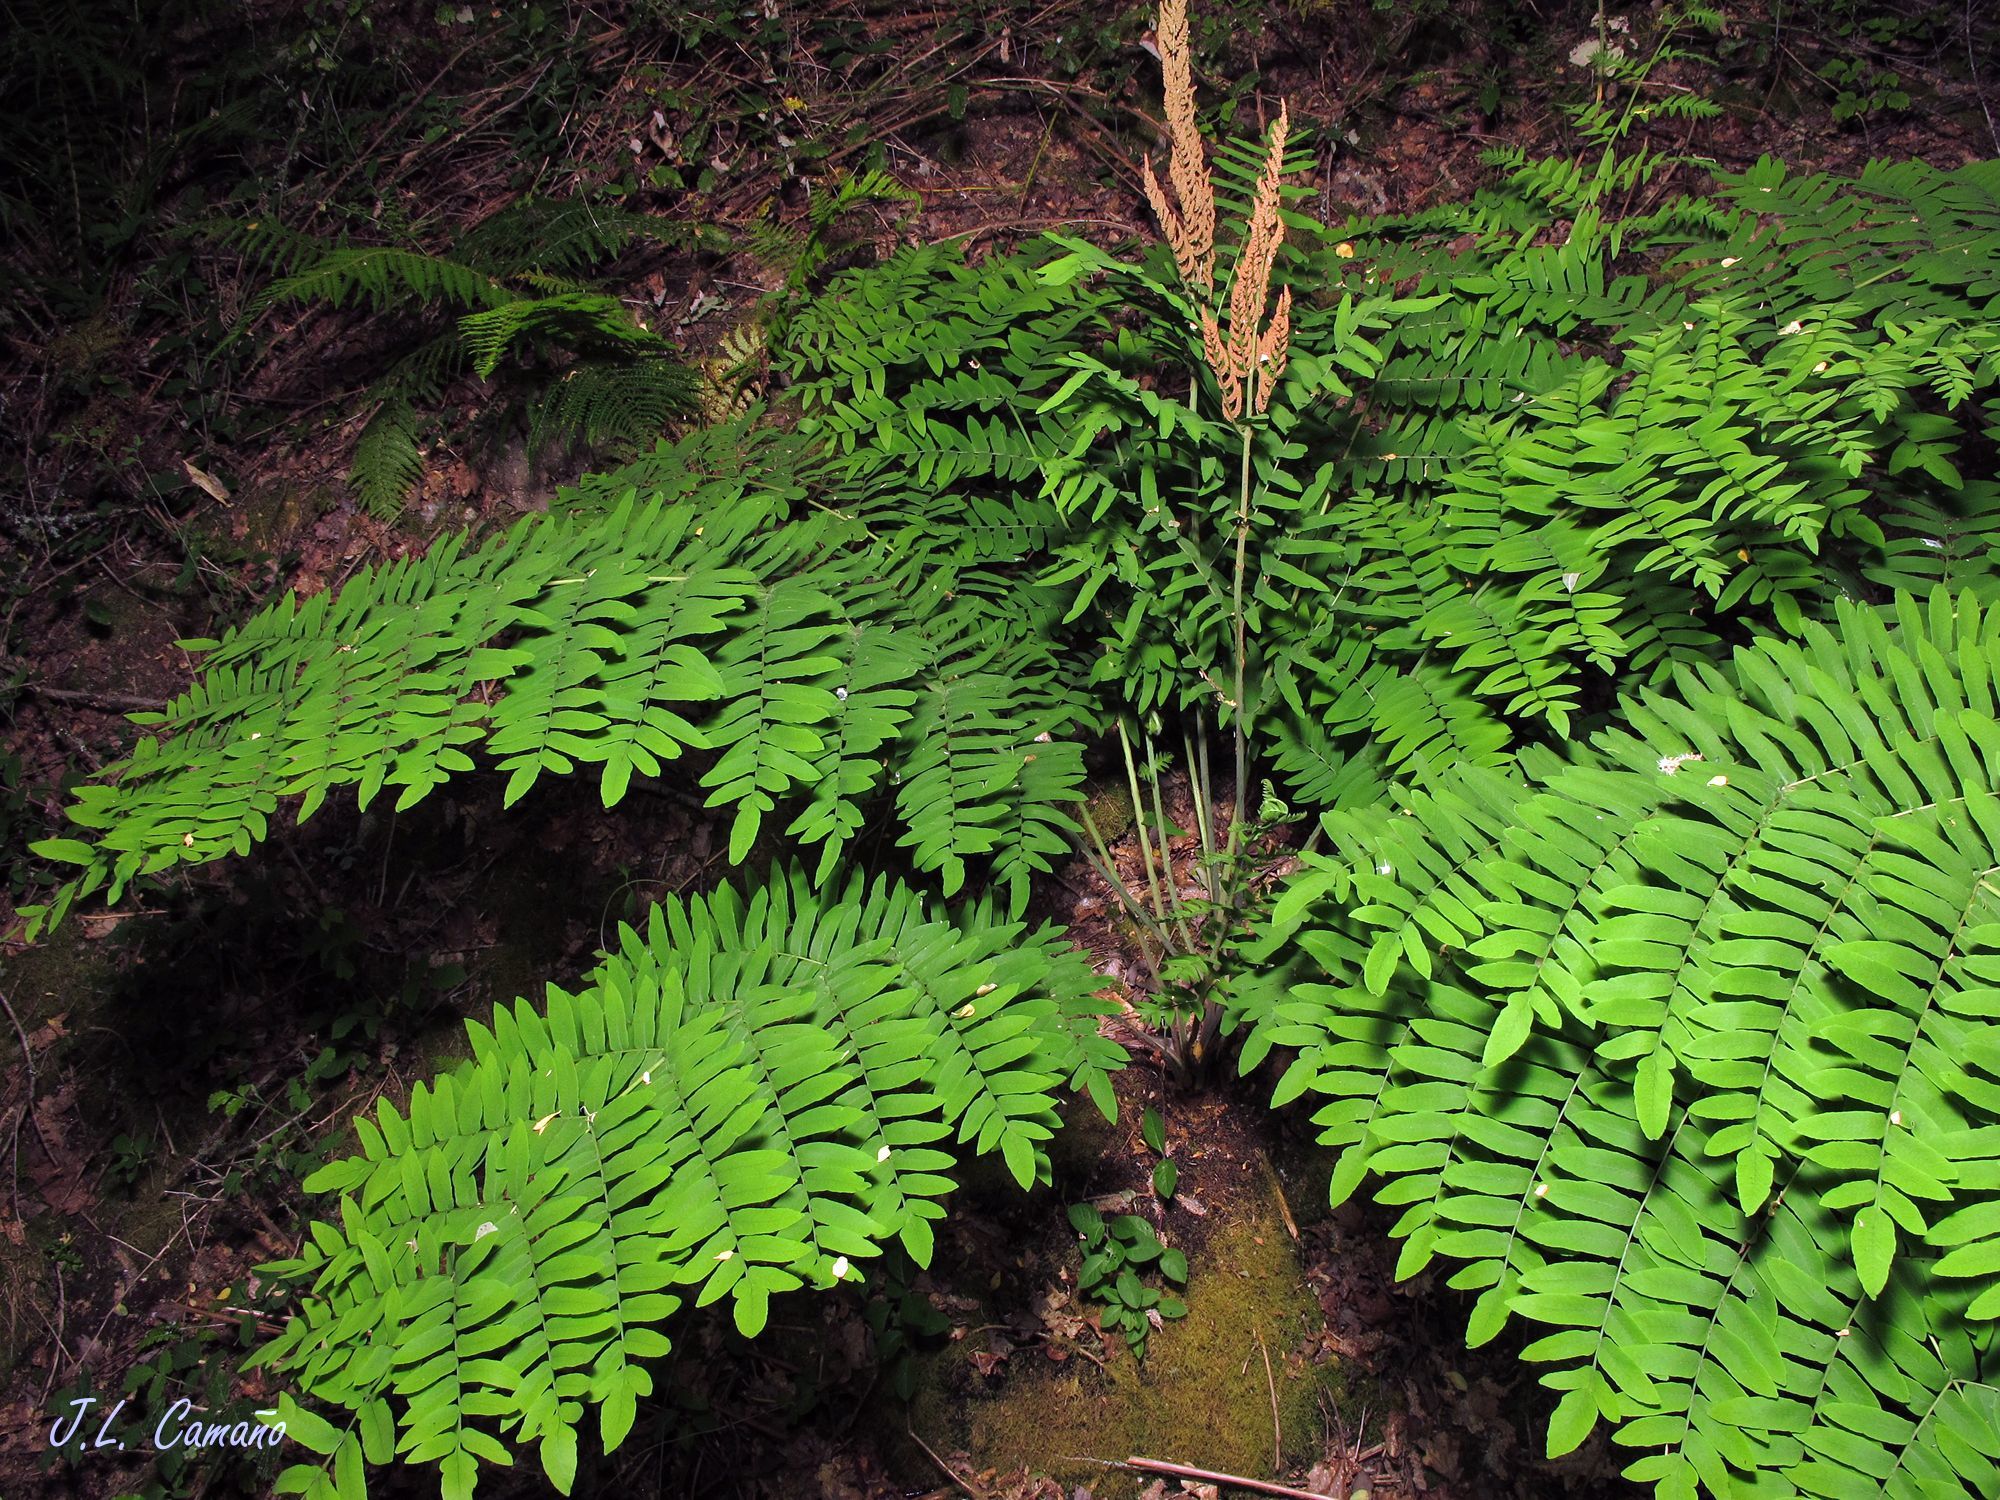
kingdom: Plantae
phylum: Tracheophyta
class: Polypodiopsida
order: Osmundales
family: Osmundaceae
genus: Osmunda
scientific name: Osmunda regalis
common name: Royal fern
